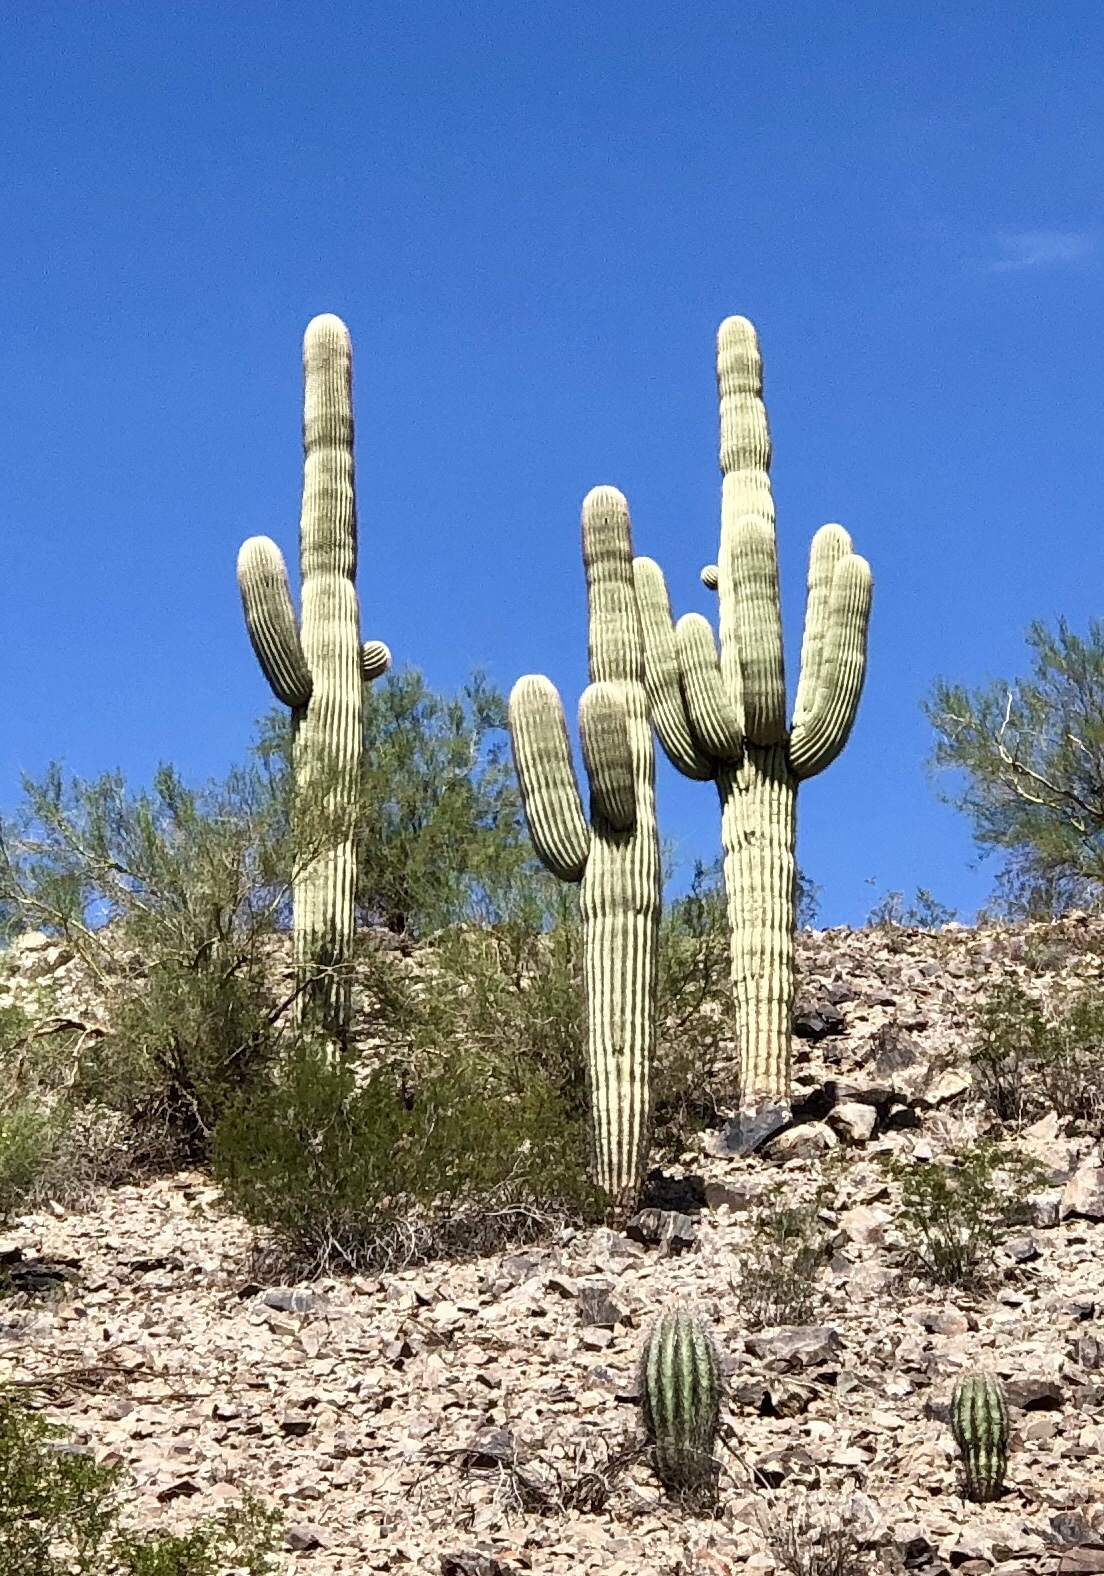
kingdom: Plantae
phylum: Tracheophyta
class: Magnoliopsida
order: Caryophyllales
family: Cactaceae
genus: Carnegiea
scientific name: Carnegiea gigantea
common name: Saguaro
